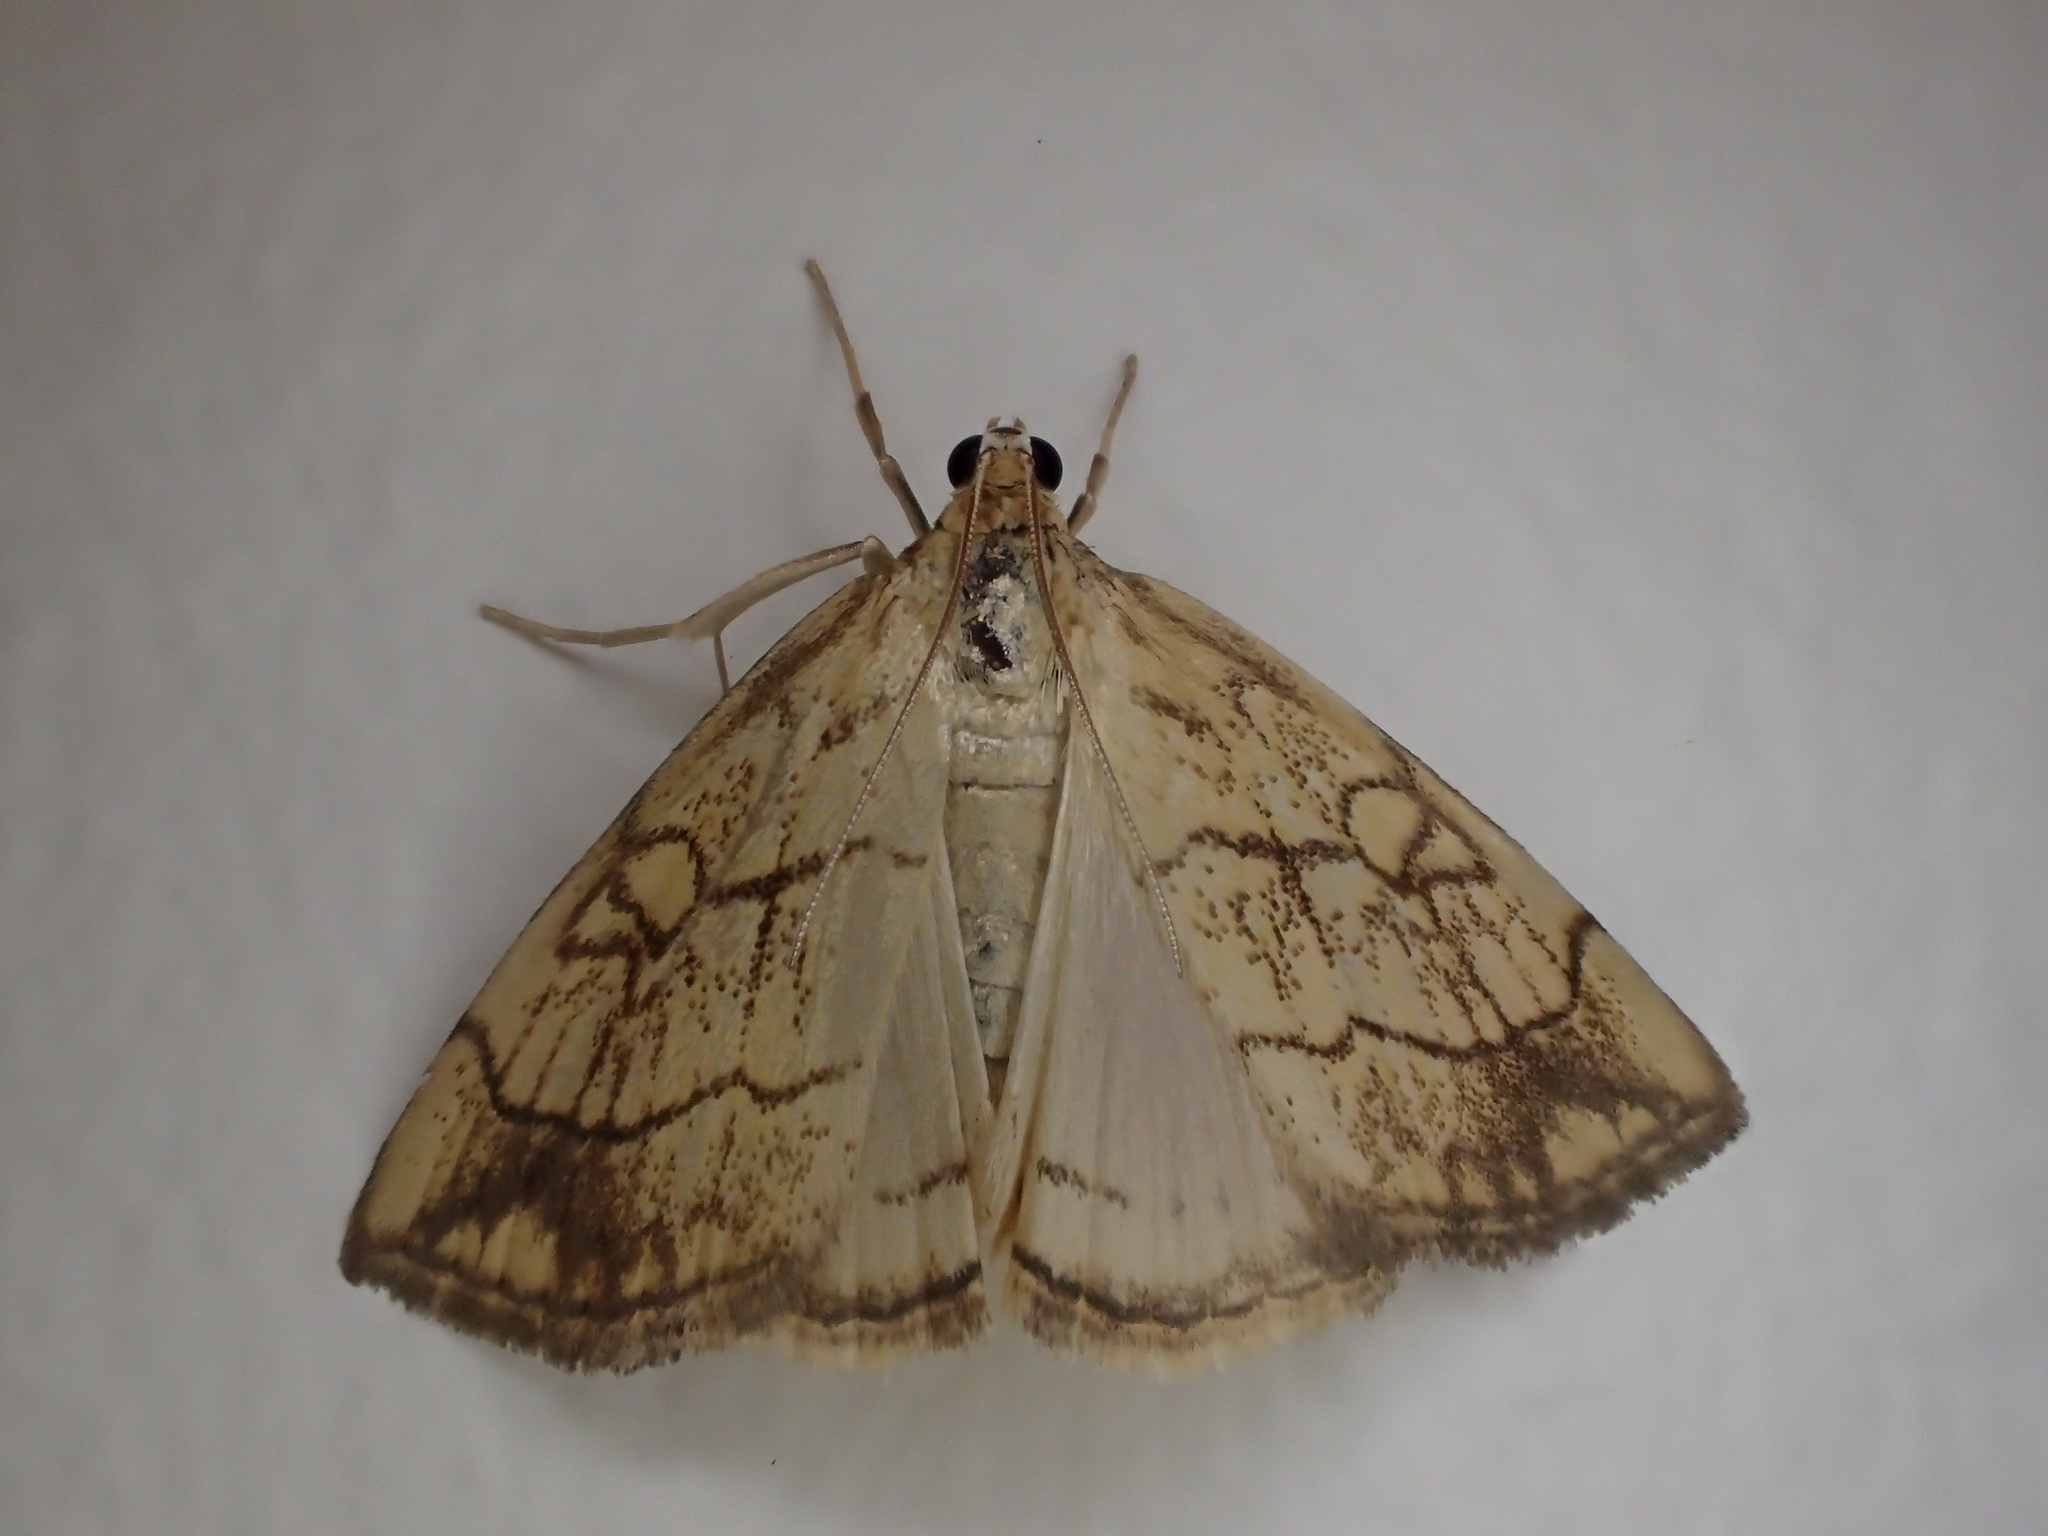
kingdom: Animalia
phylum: Arthropoda
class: Insecta
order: Lepidoptera
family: Crambidae
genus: Evergestis
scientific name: Evergestis pallidata
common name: Chequered pearl
